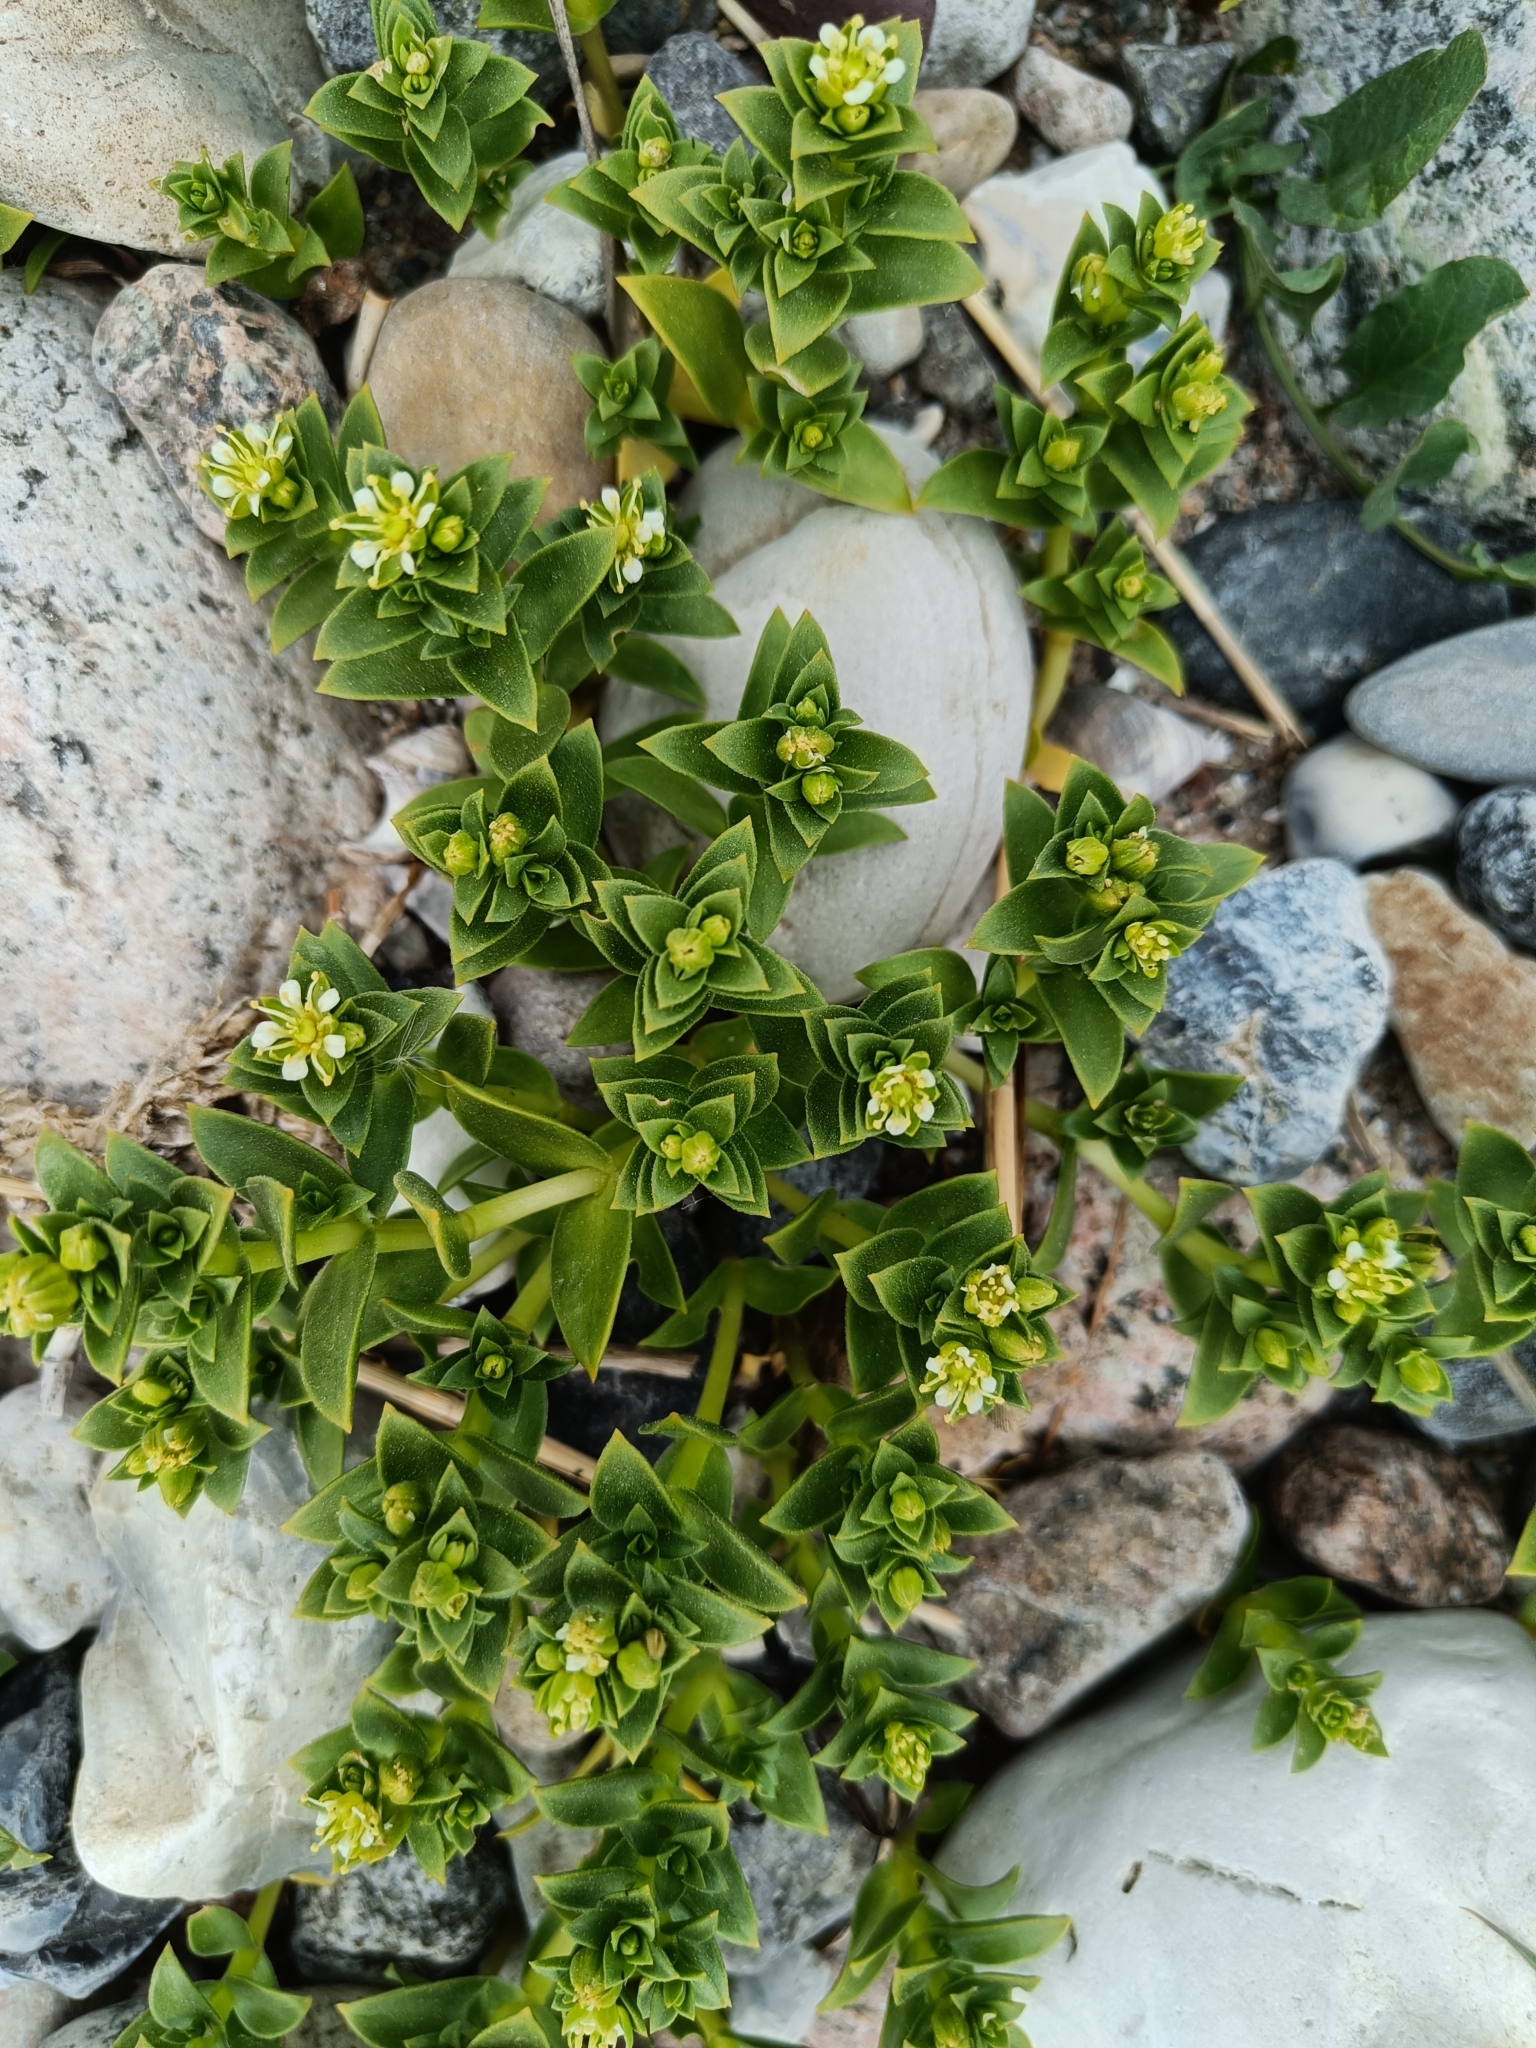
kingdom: Plantae
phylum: Tracheophyta
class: Magnoliopsida
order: Caryophyllales
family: Caryophyllaceae
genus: Honckenya
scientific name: Honckenya peploides
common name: Sea sandwort
